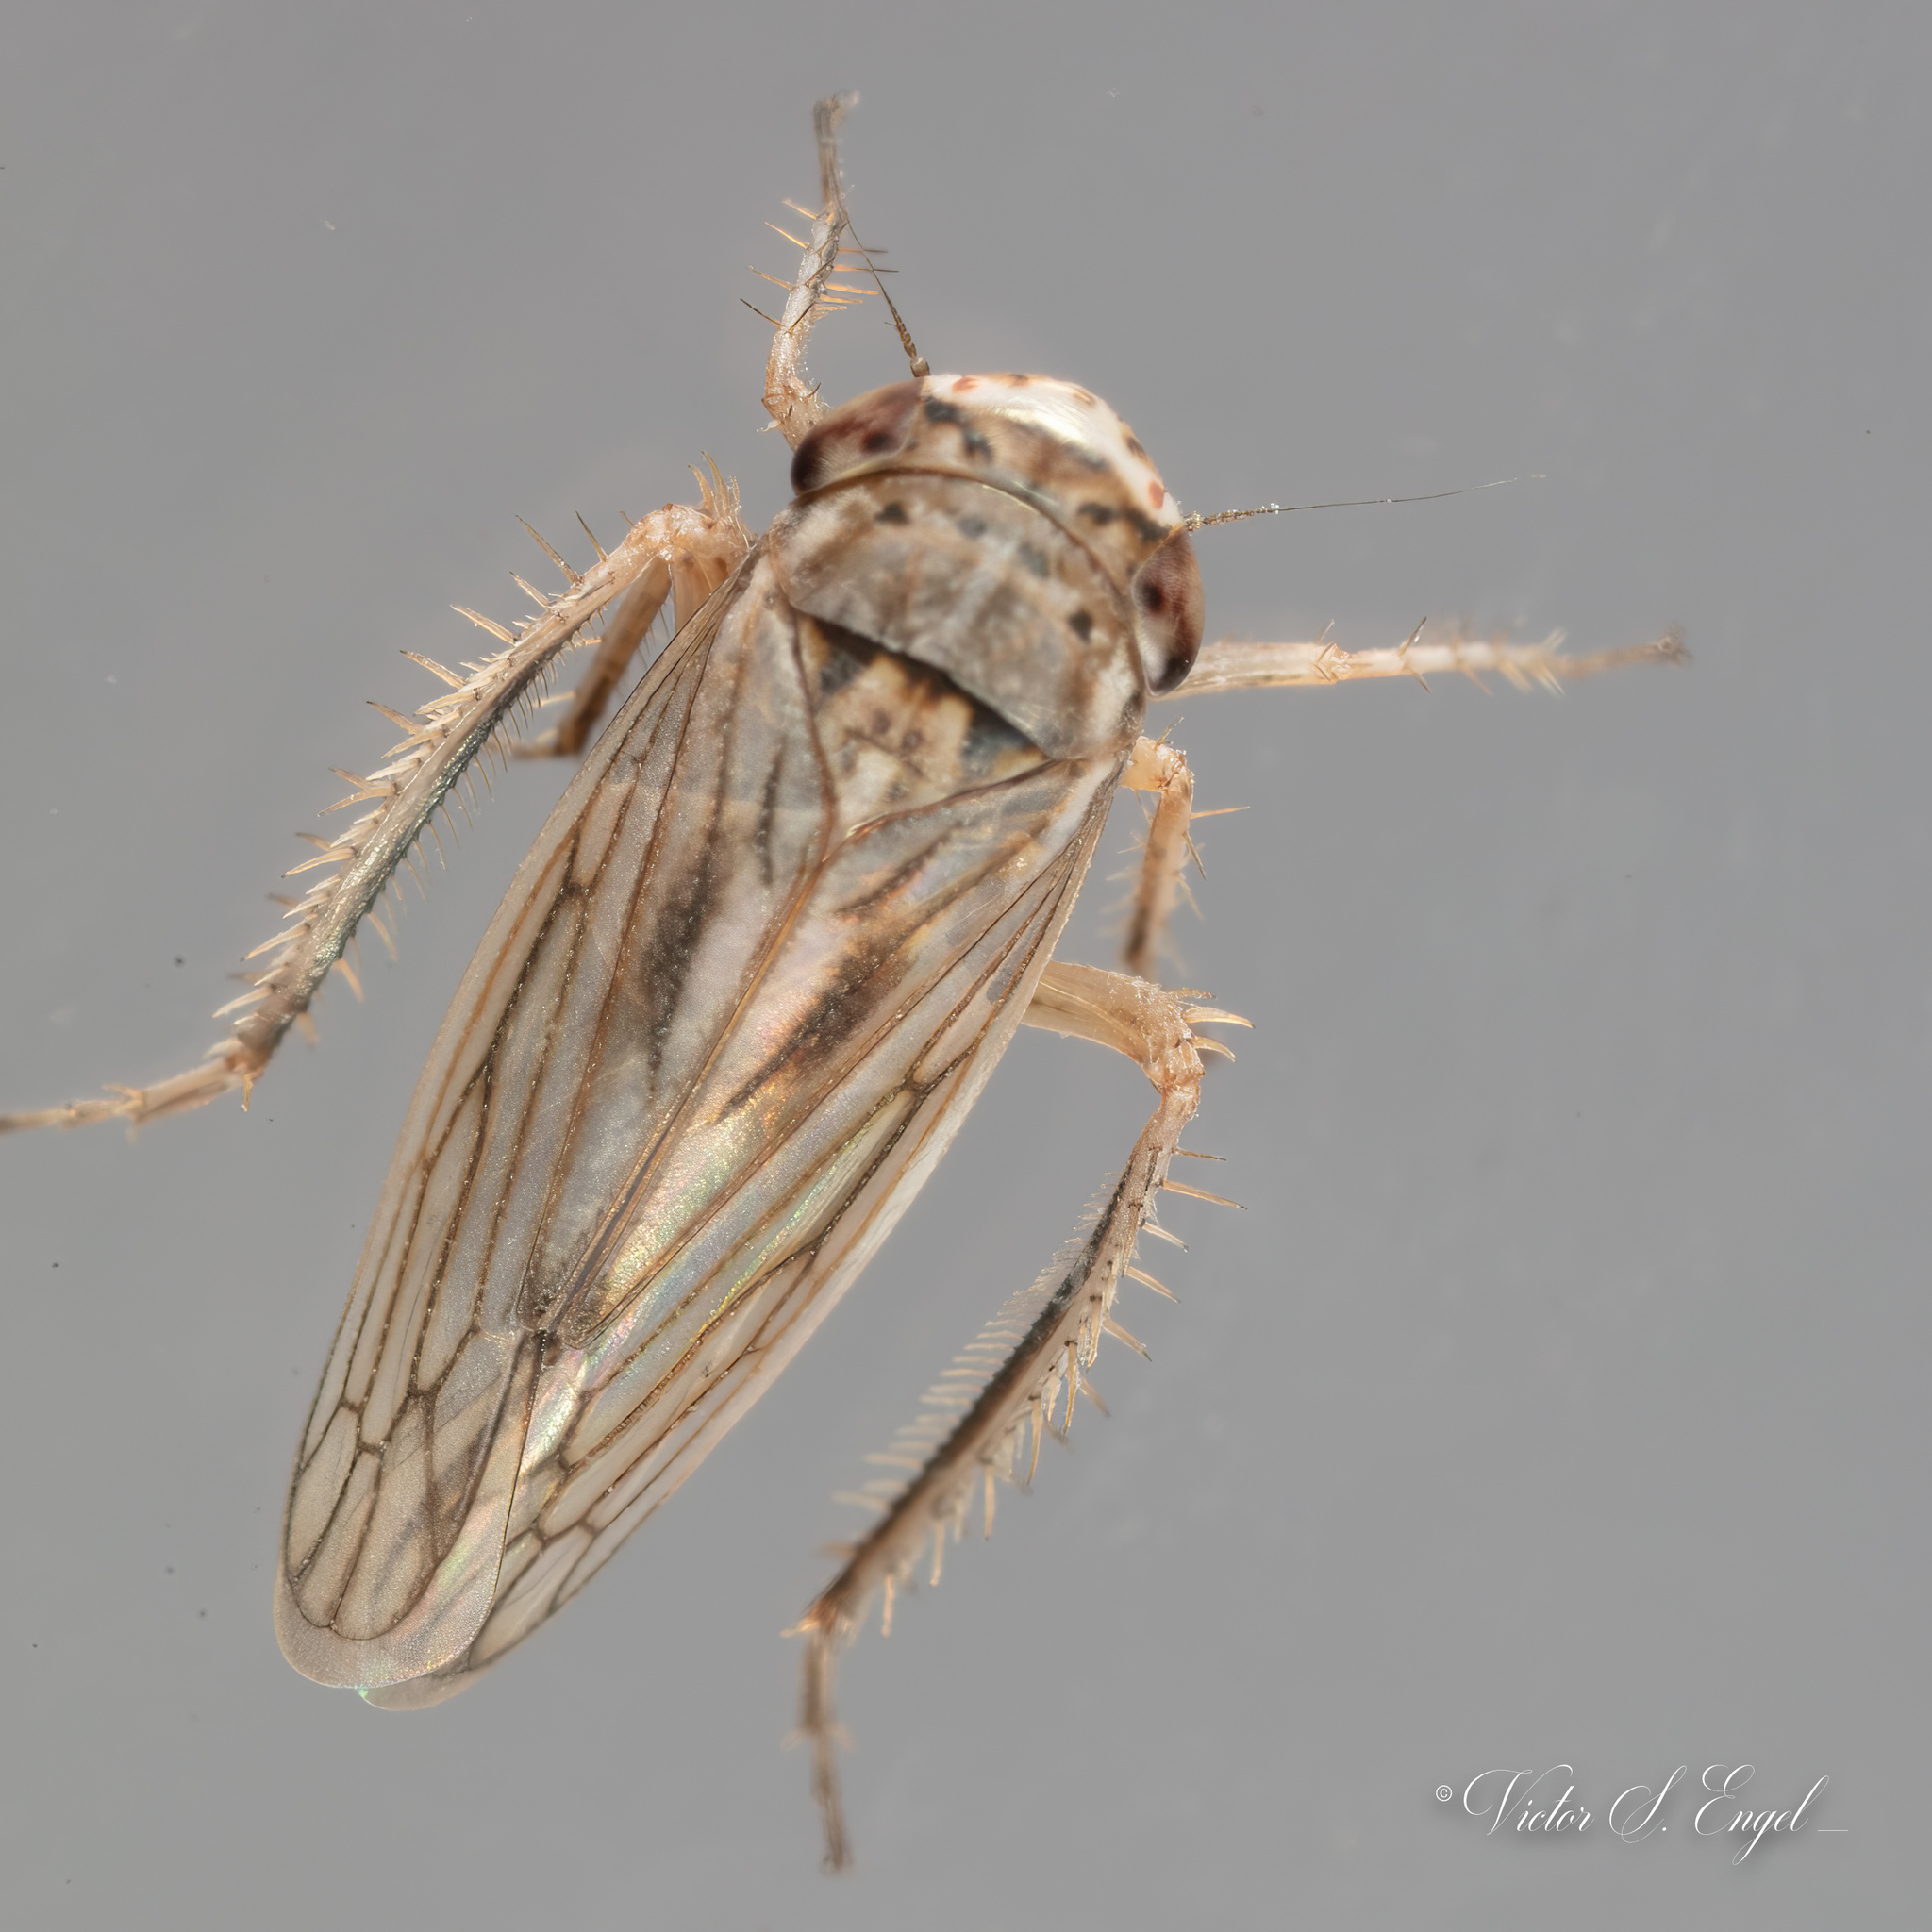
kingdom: Animalia
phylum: Arthropoda
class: Insecta
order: Hemiptera
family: Cicadellidae
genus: Exitianus
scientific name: Exitianus exitiosus
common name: Gray lawn leafhopper
